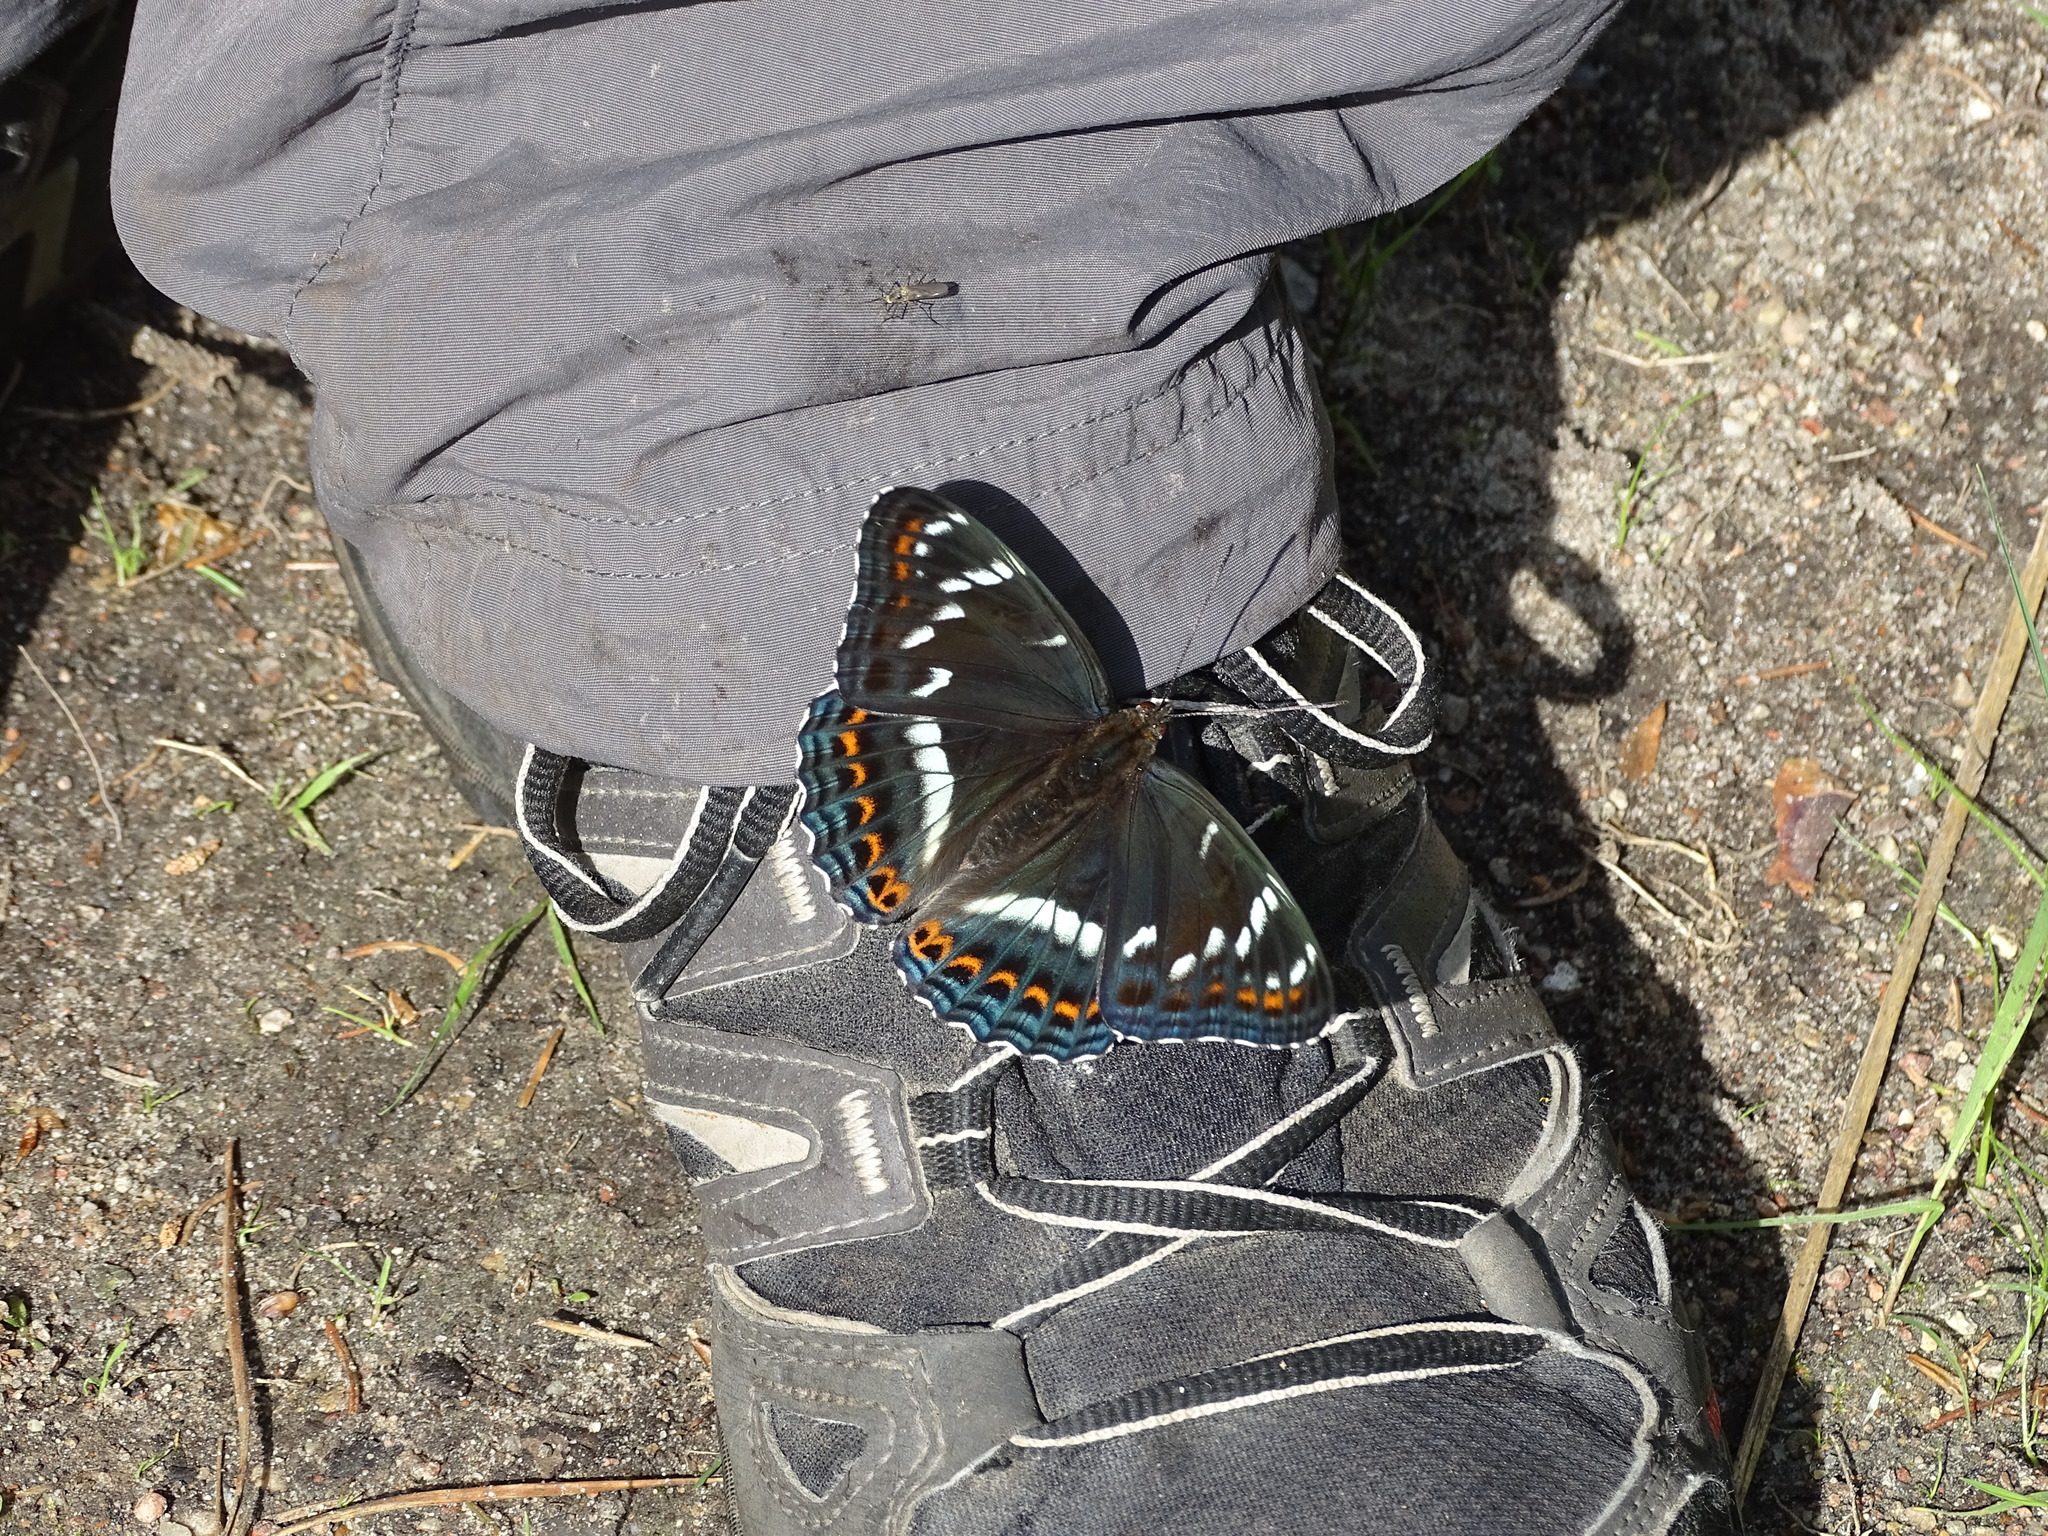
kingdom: Animalia
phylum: Arthropoda
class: Insecta
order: Lepidoptera
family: Nymphalidae
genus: Limenitis
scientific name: Limenitis populi
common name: Poplar admiral
